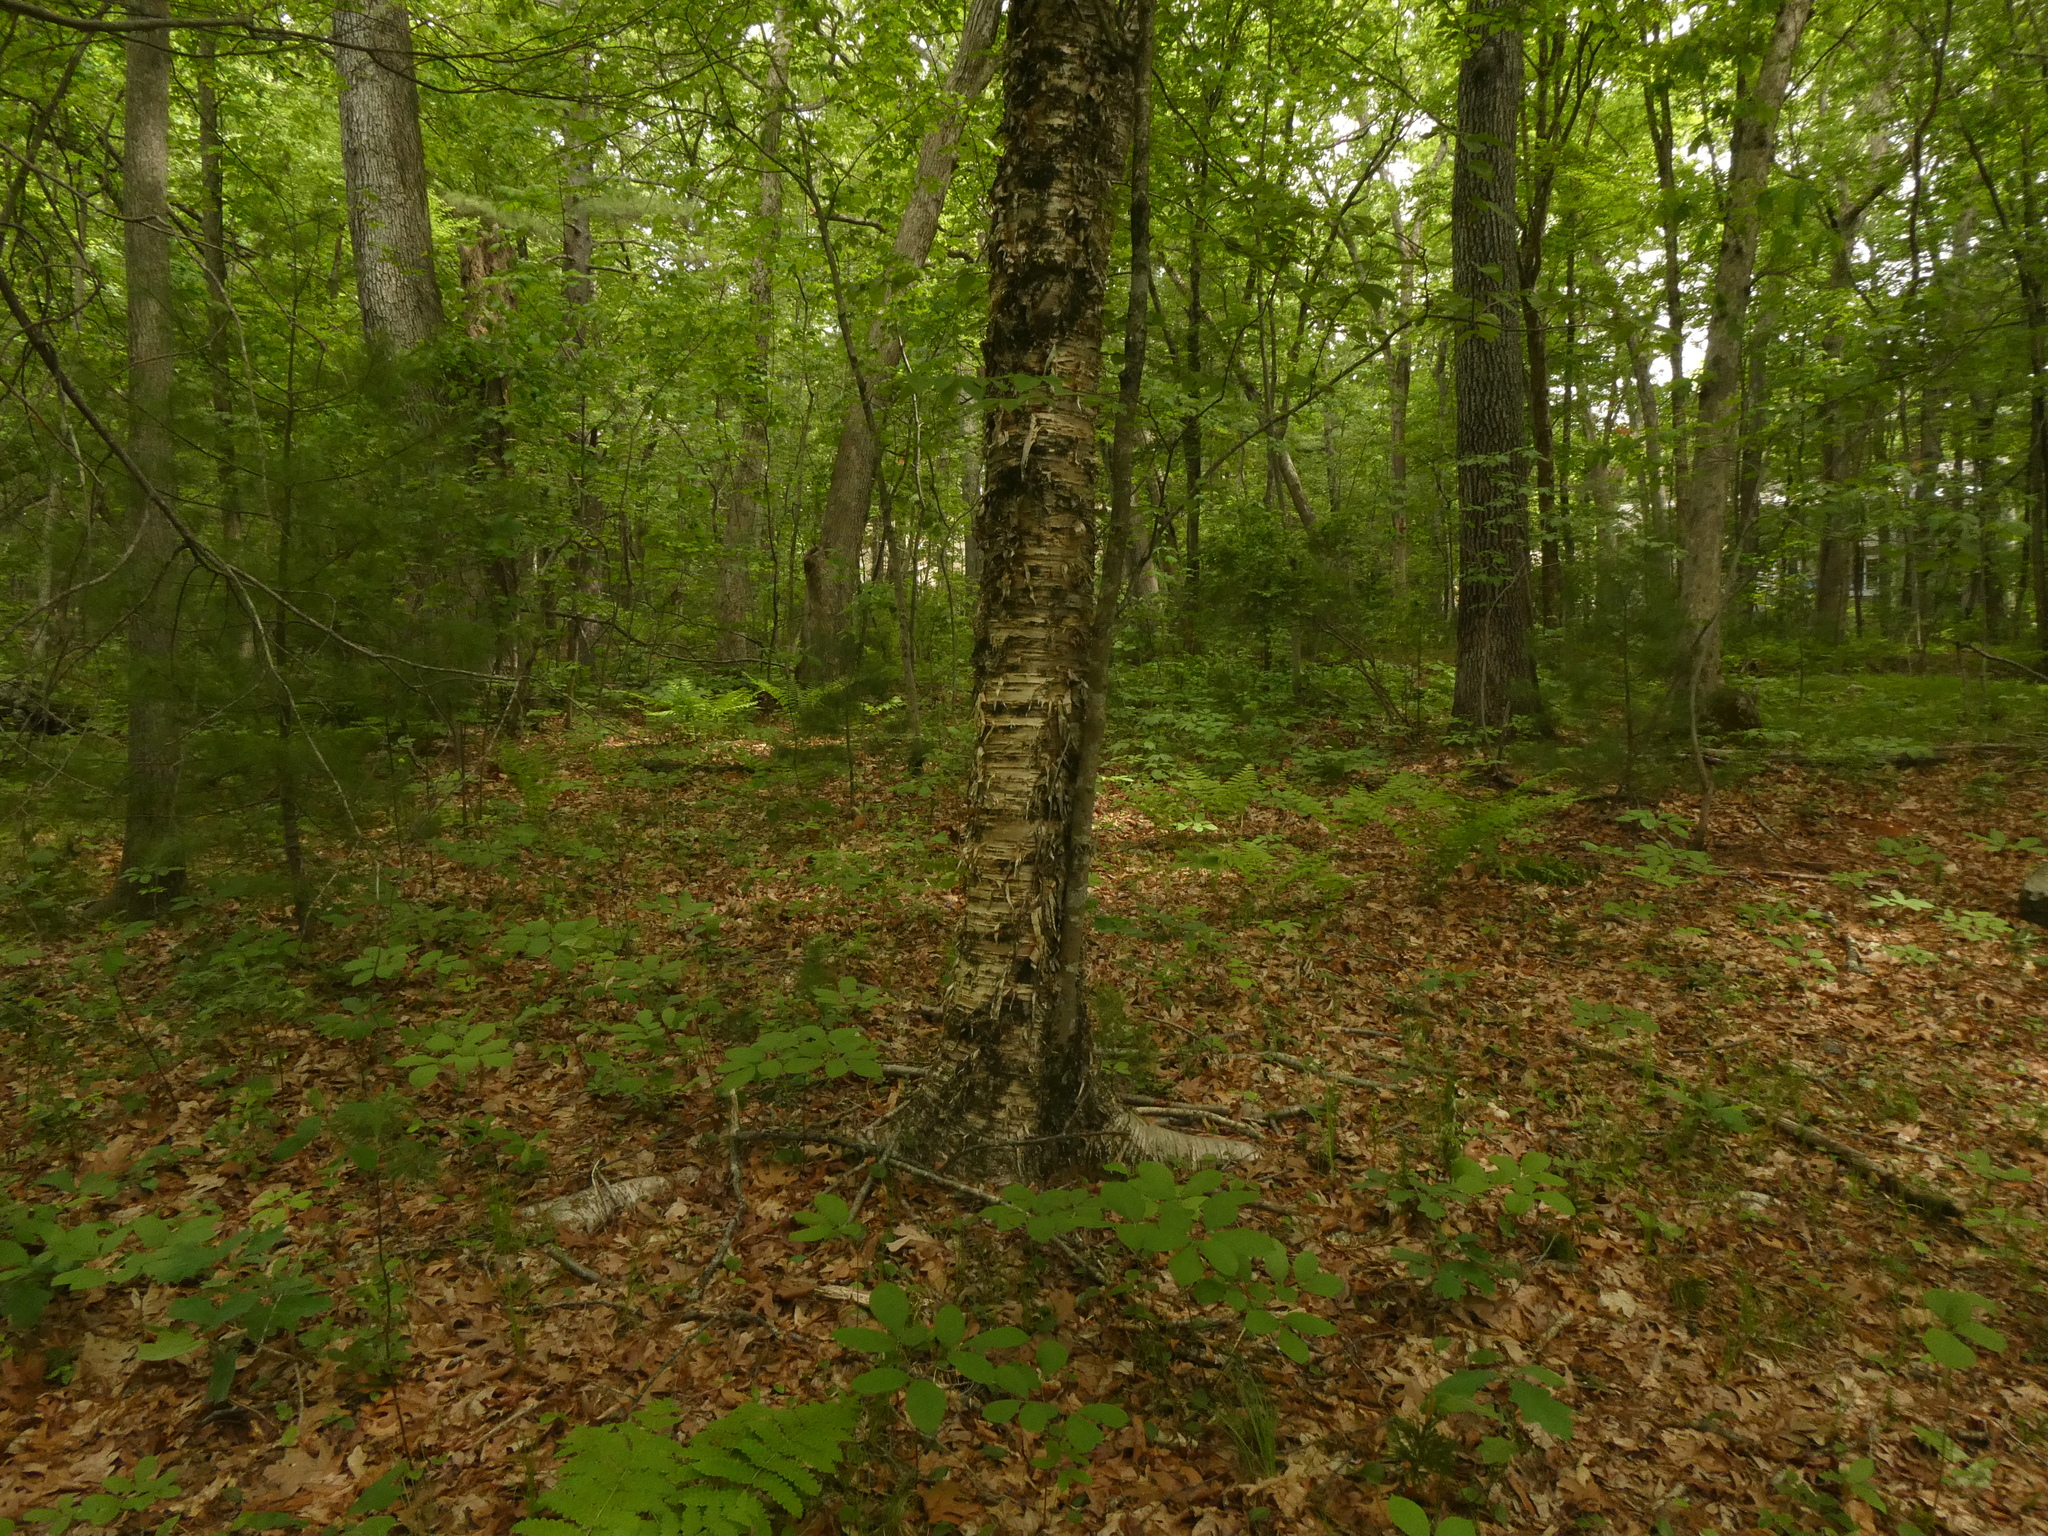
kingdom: Plantae
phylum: Tracheophyta
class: Magnoliopsida
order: Fagales
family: Betulaceae
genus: Betula
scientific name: Betula alleghaniensis
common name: Yellow birch
